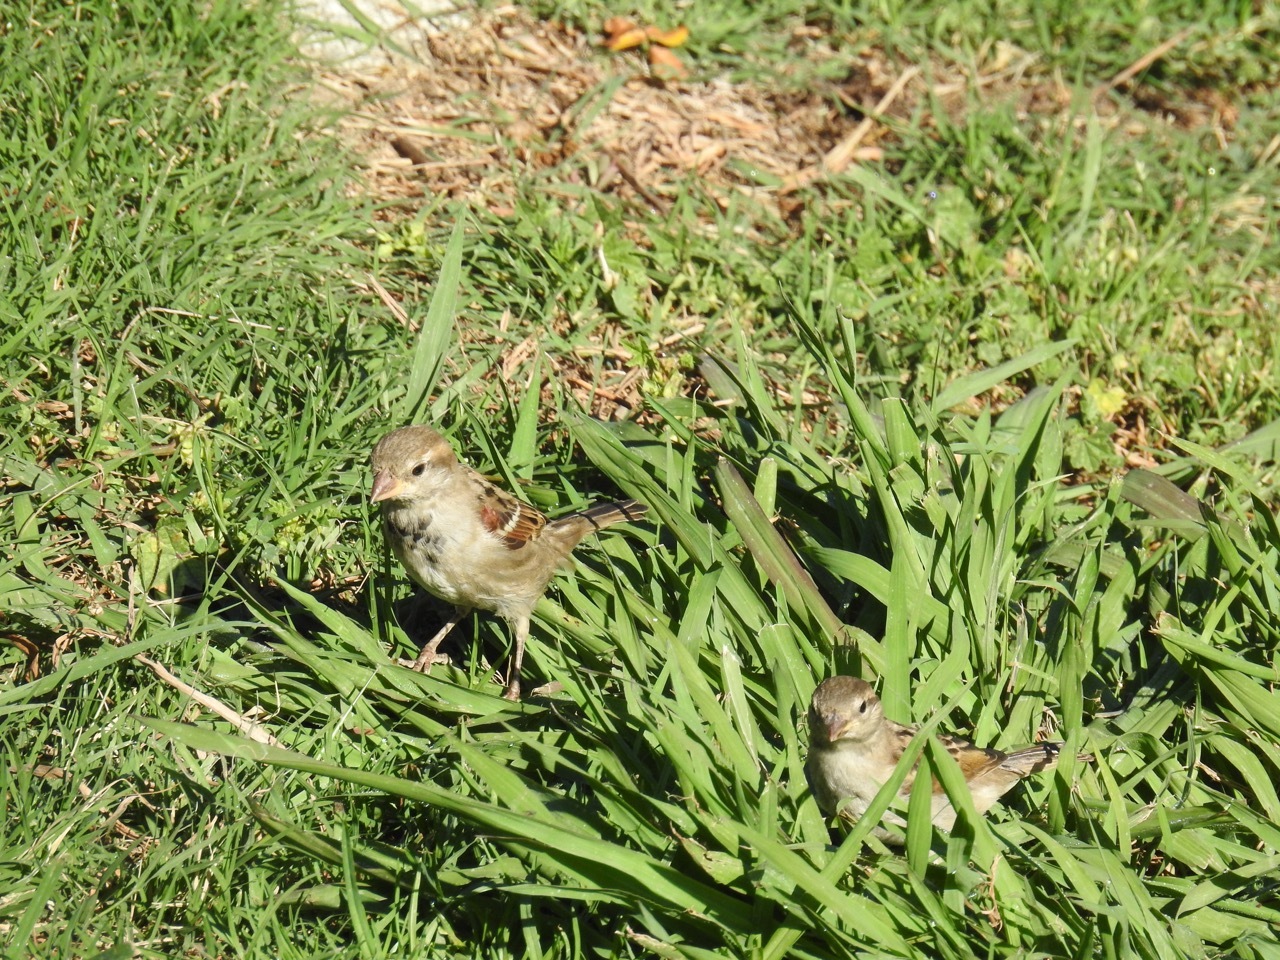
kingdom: Animalia
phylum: Chordata
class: Aves
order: Passeriformes
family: Passeridae
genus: Passer
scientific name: Passer domesticus
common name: House sparrow
